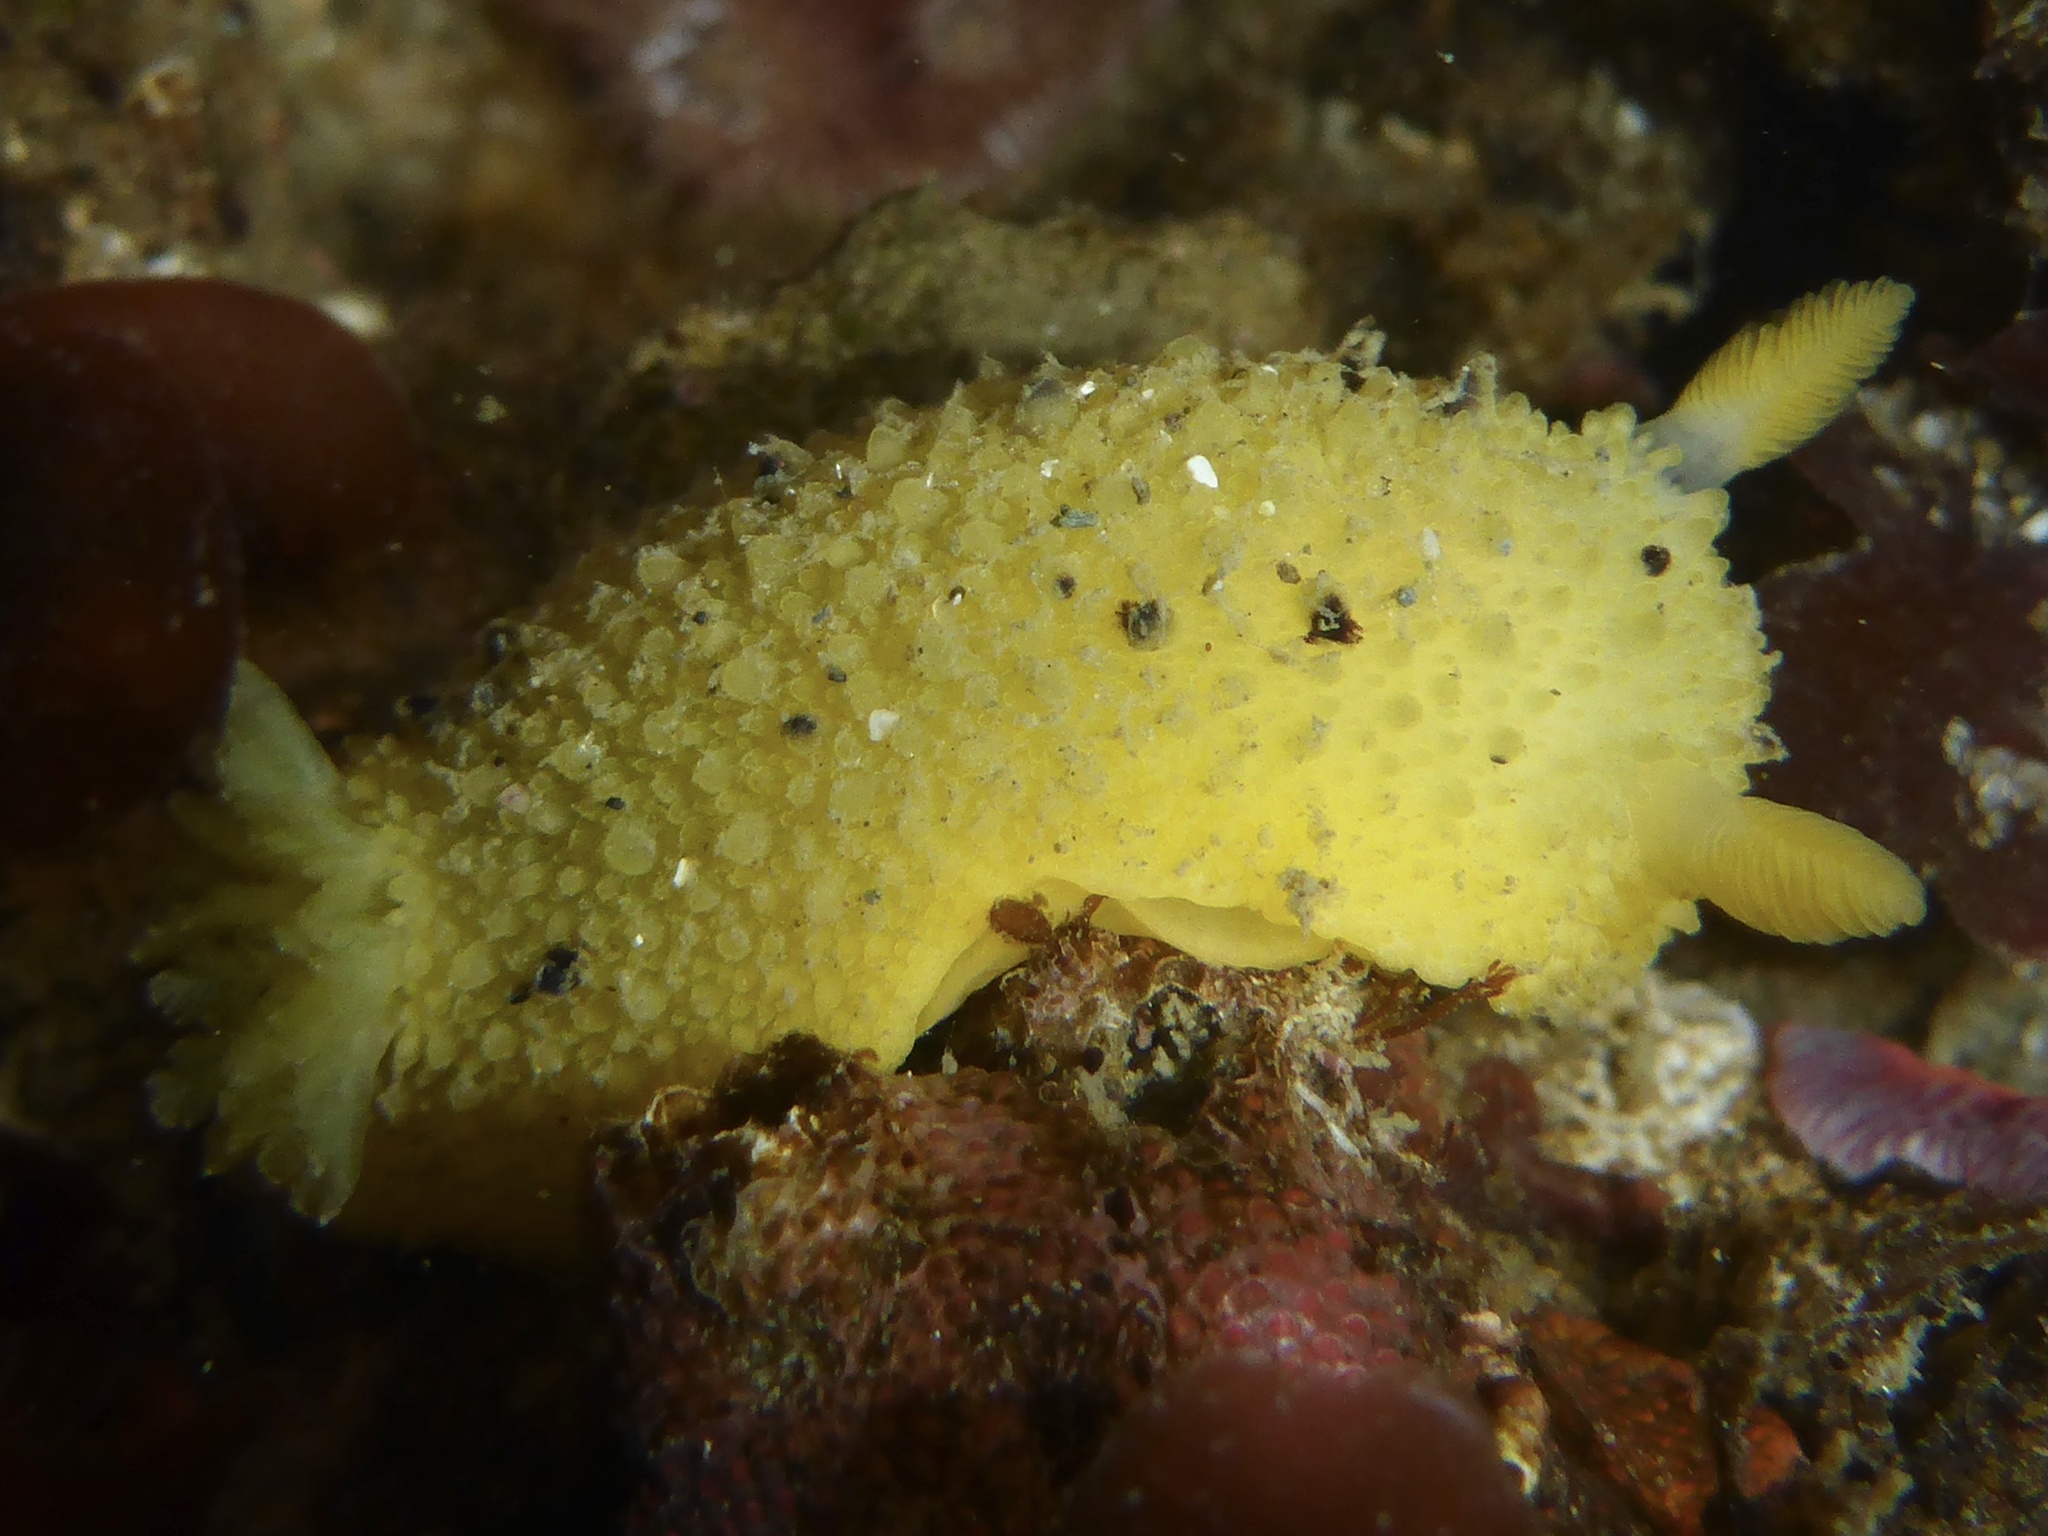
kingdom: Animalia
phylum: Mollusca
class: Gastropoda
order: Nudibranchia
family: Dorididae
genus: Doris
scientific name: Doris montereyensis
